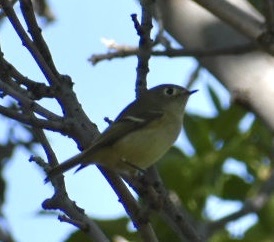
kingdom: Animalia
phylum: Chordata
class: Aves
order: Passeriformes
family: Regulidae
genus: Regulus
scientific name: Regulus calendula
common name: Ruby-crowned kinglet
